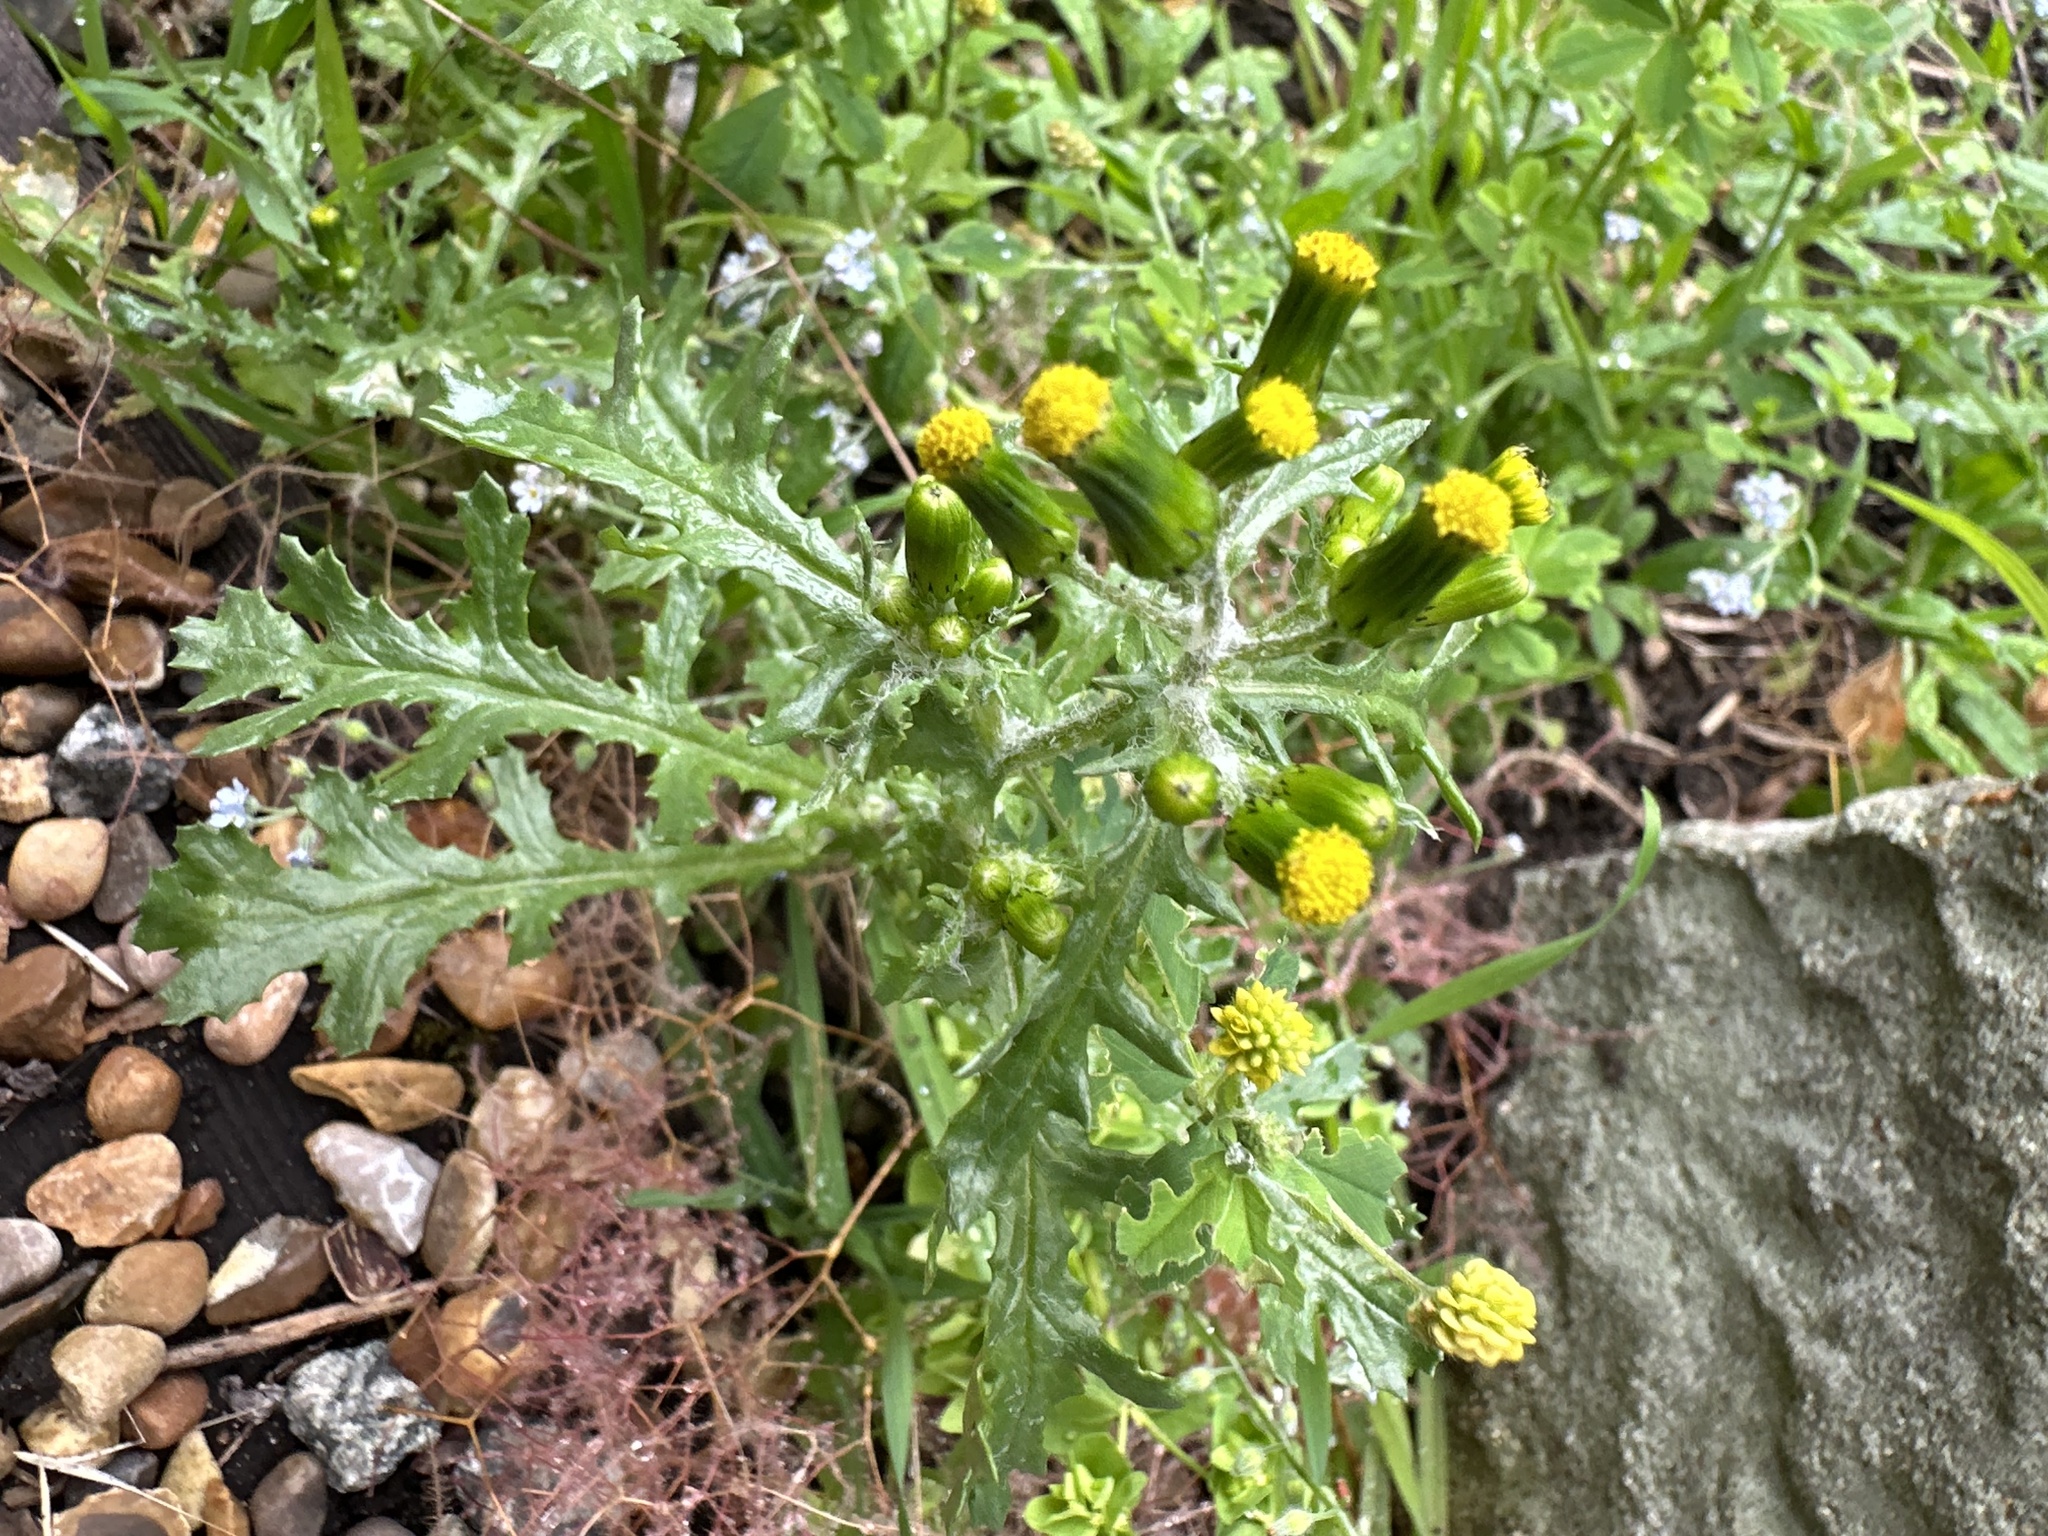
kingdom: Plantae
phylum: Tracheophyta
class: Magnoliopsida
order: Asterales
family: Asteraceae
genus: Senecio
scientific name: Senecio vulgaris
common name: Old-man-in-the-spring
